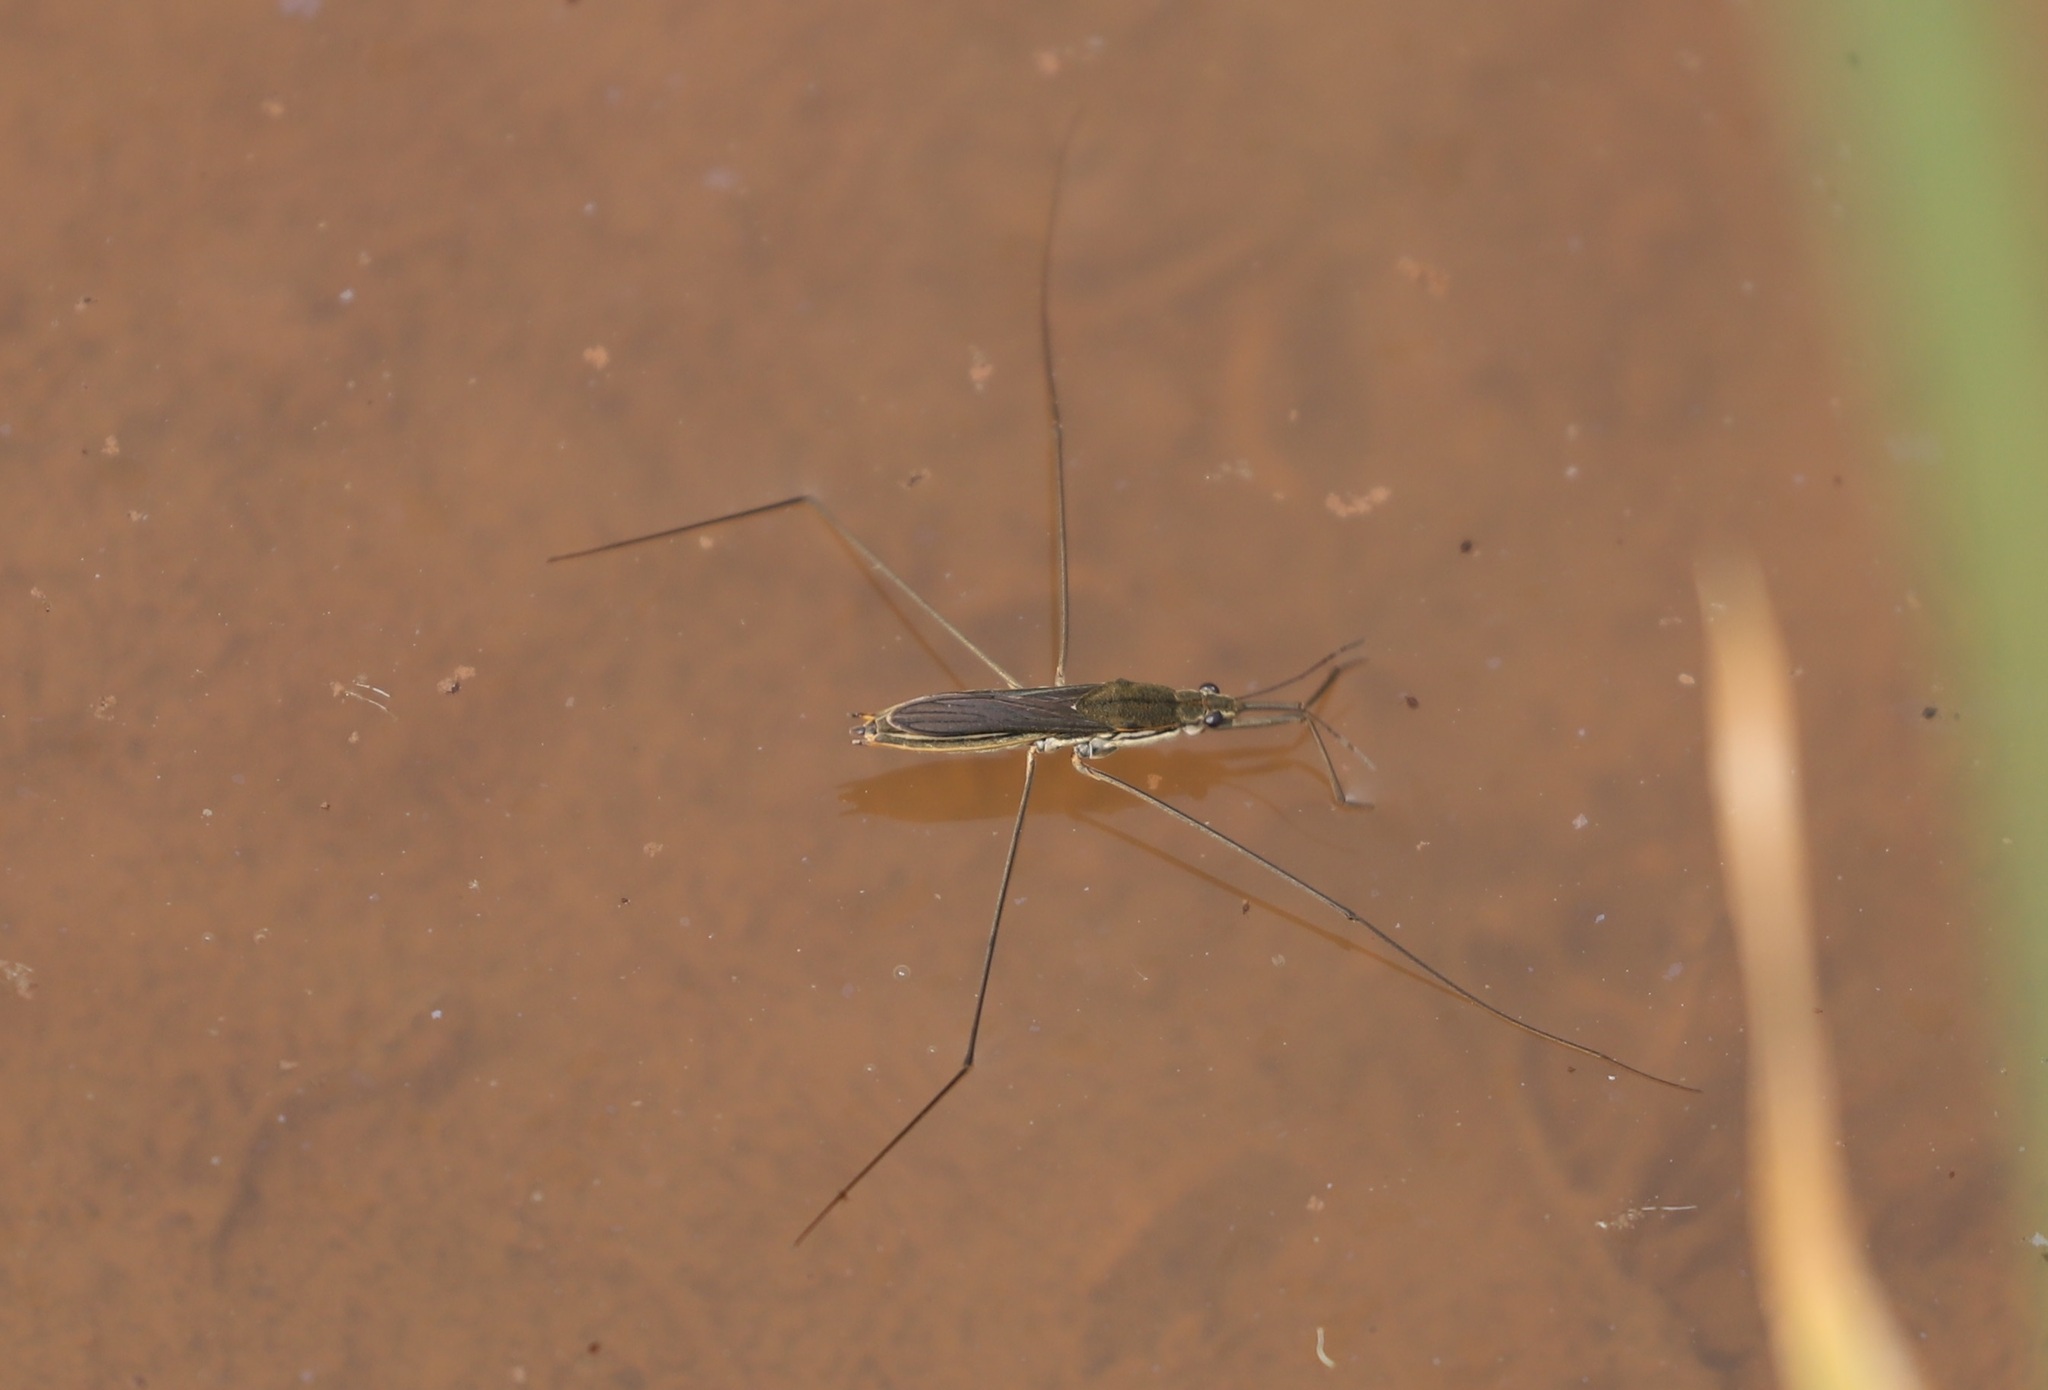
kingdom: Animalia
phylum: Arthropoda
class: Insecta
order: Hemiptera
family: Gerridae
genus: Aquarius
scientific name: Aquarius paludum
